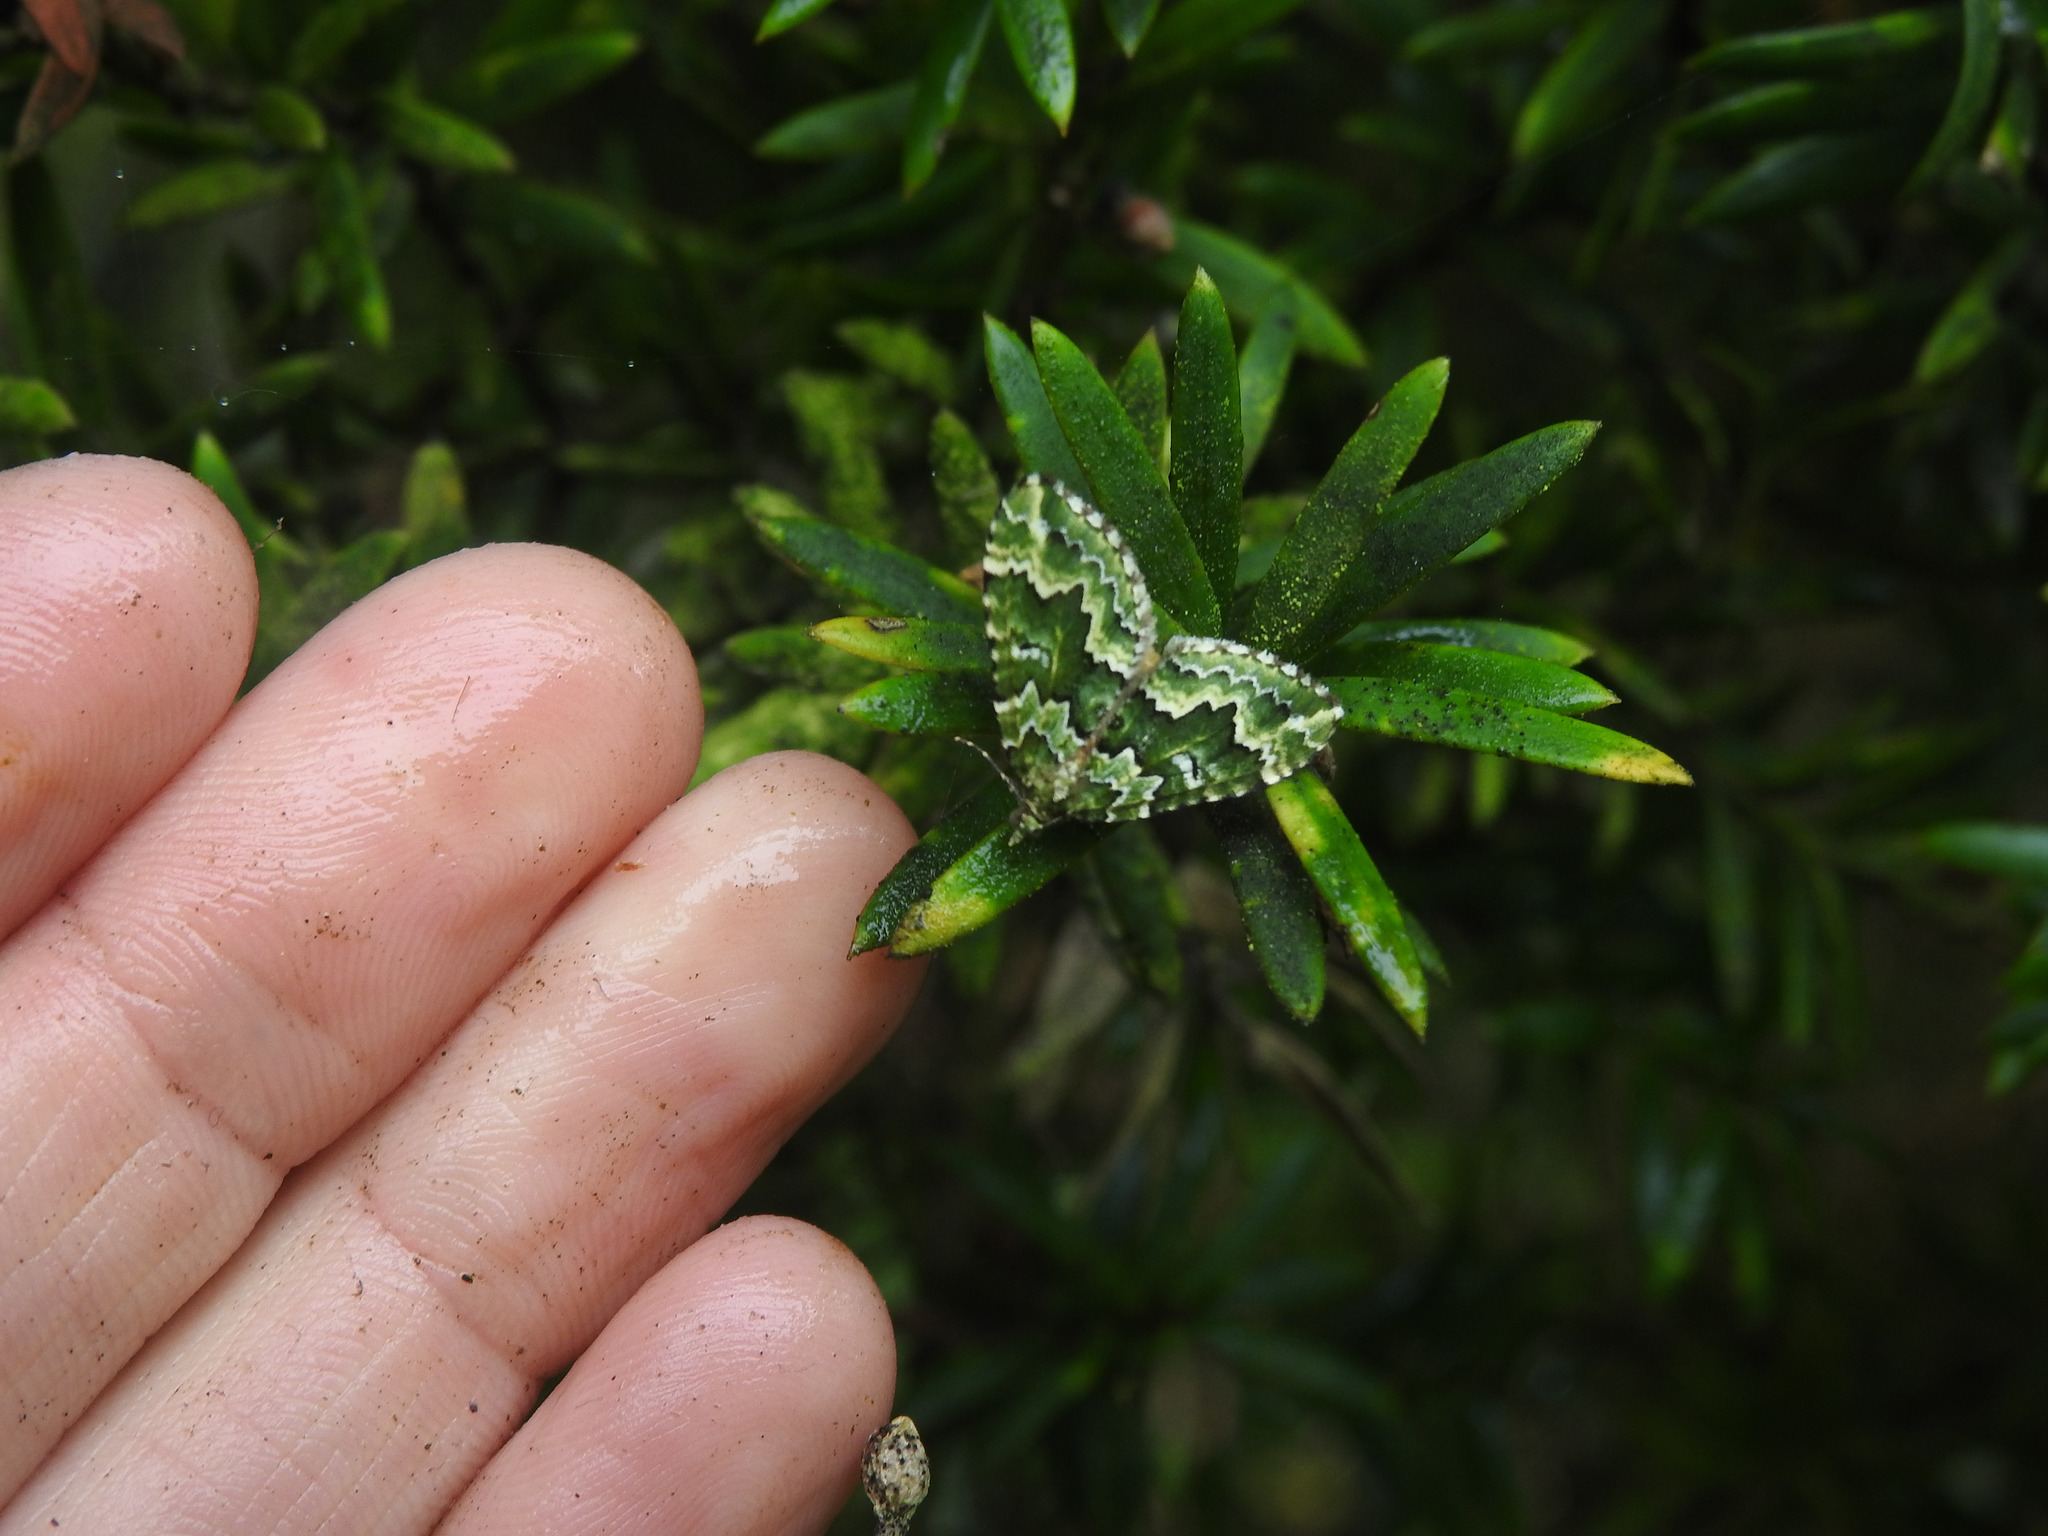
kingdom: Animalia
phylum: Arthropoda
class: Insecta
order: Lepidoptera
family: Geometridae
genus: Asaphodes
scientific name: Asaphodes beata
